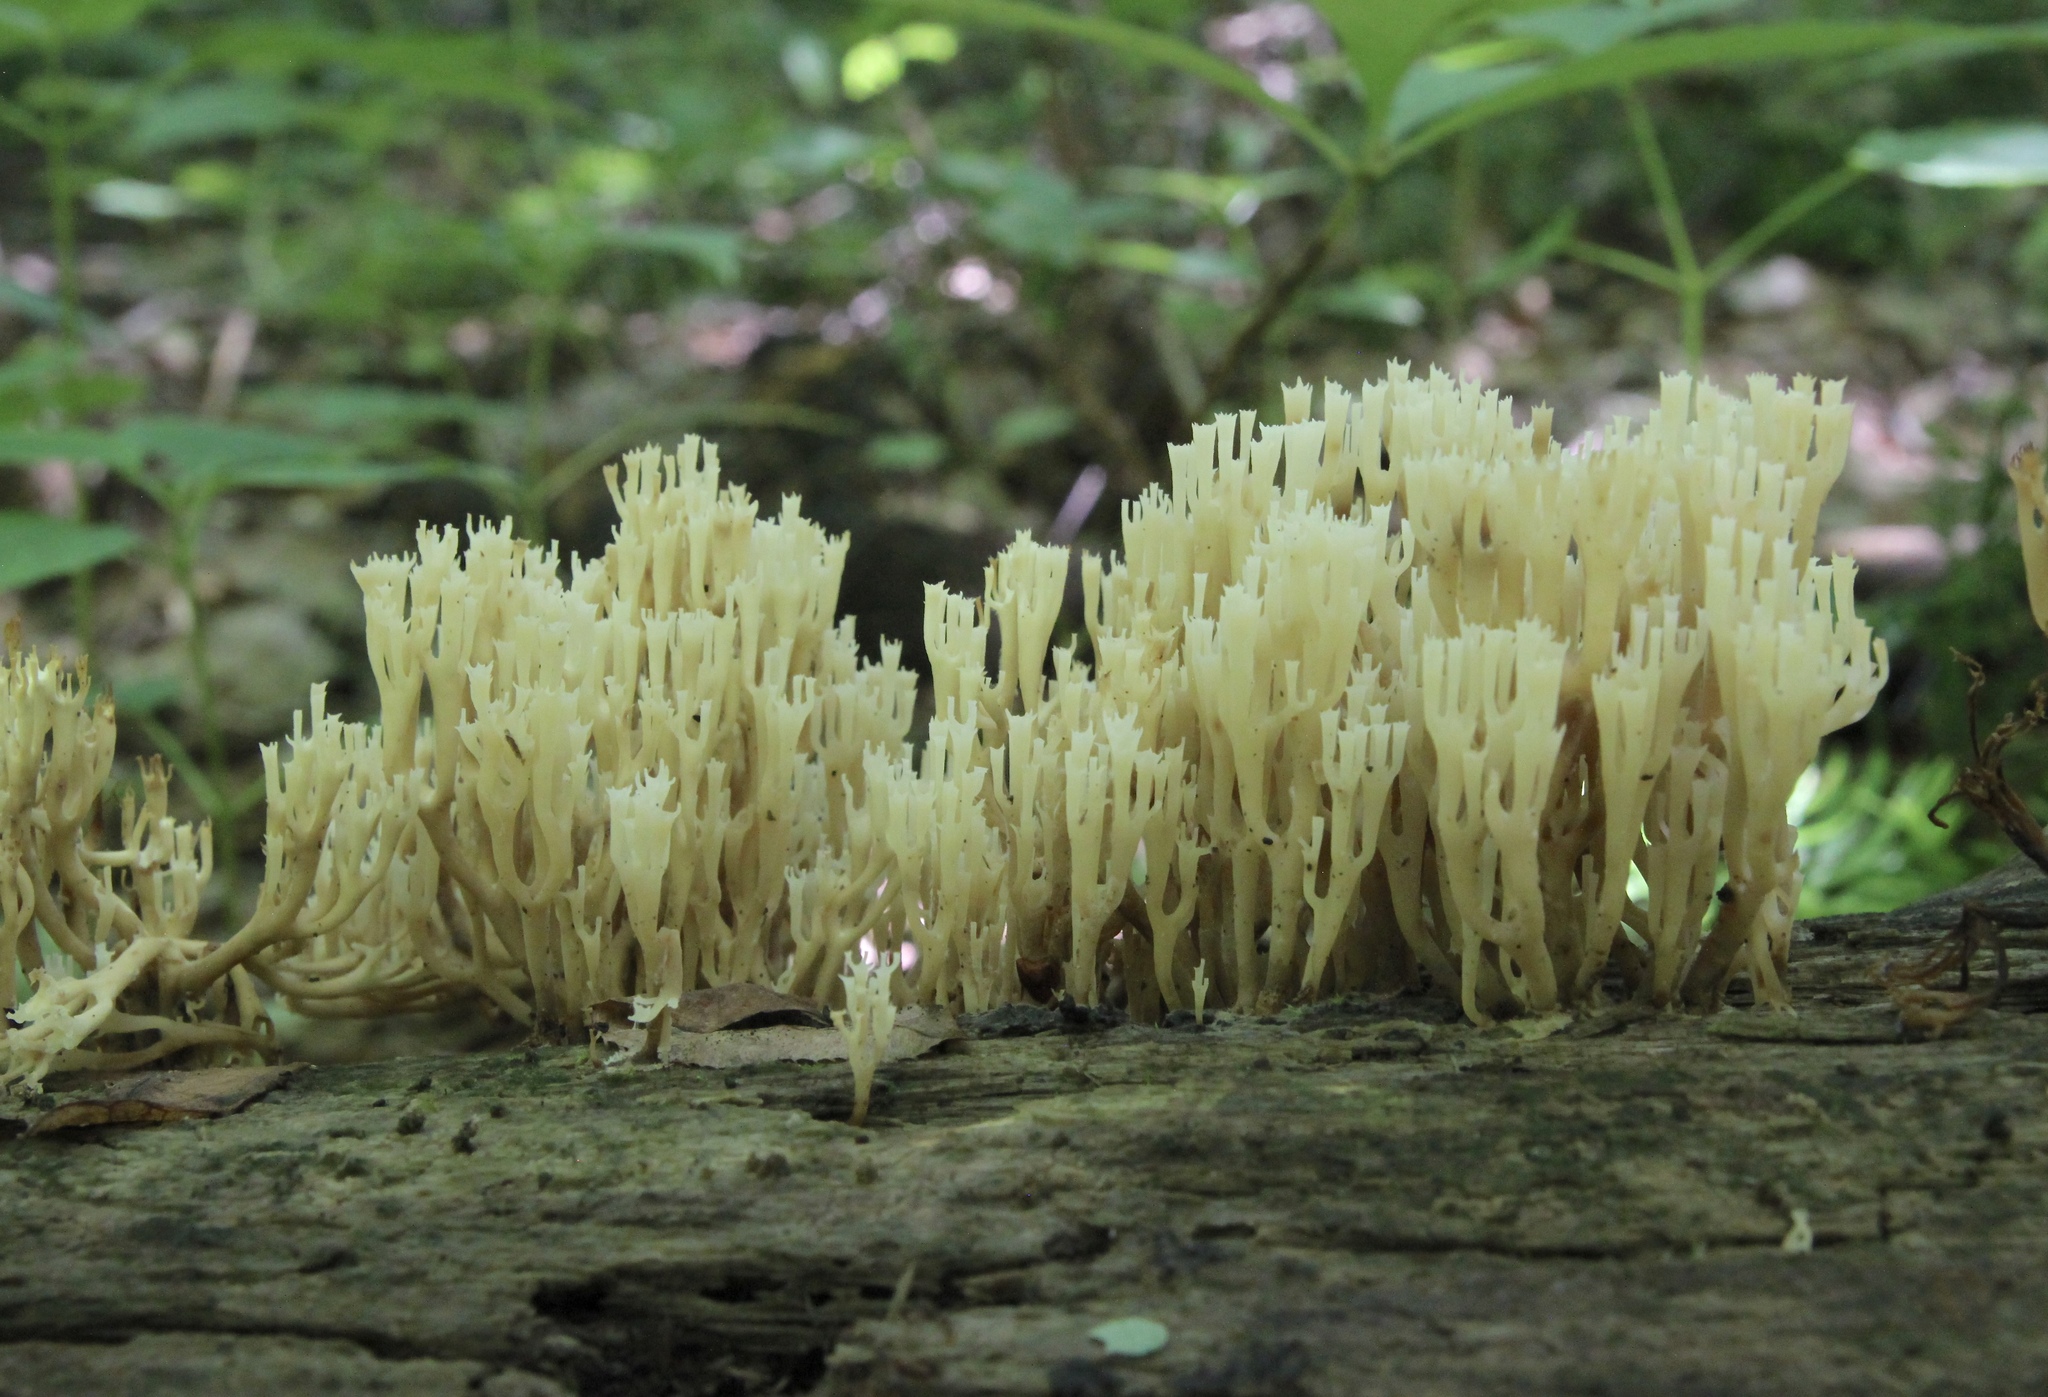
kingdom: Fungi
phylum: Basidiomycota
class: Agaricomycetes
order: Russulales
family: Auriscalpiaceae
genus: Artomyces
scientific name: Artomyces pyxidatus
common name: Crown-tipped coral fungus
